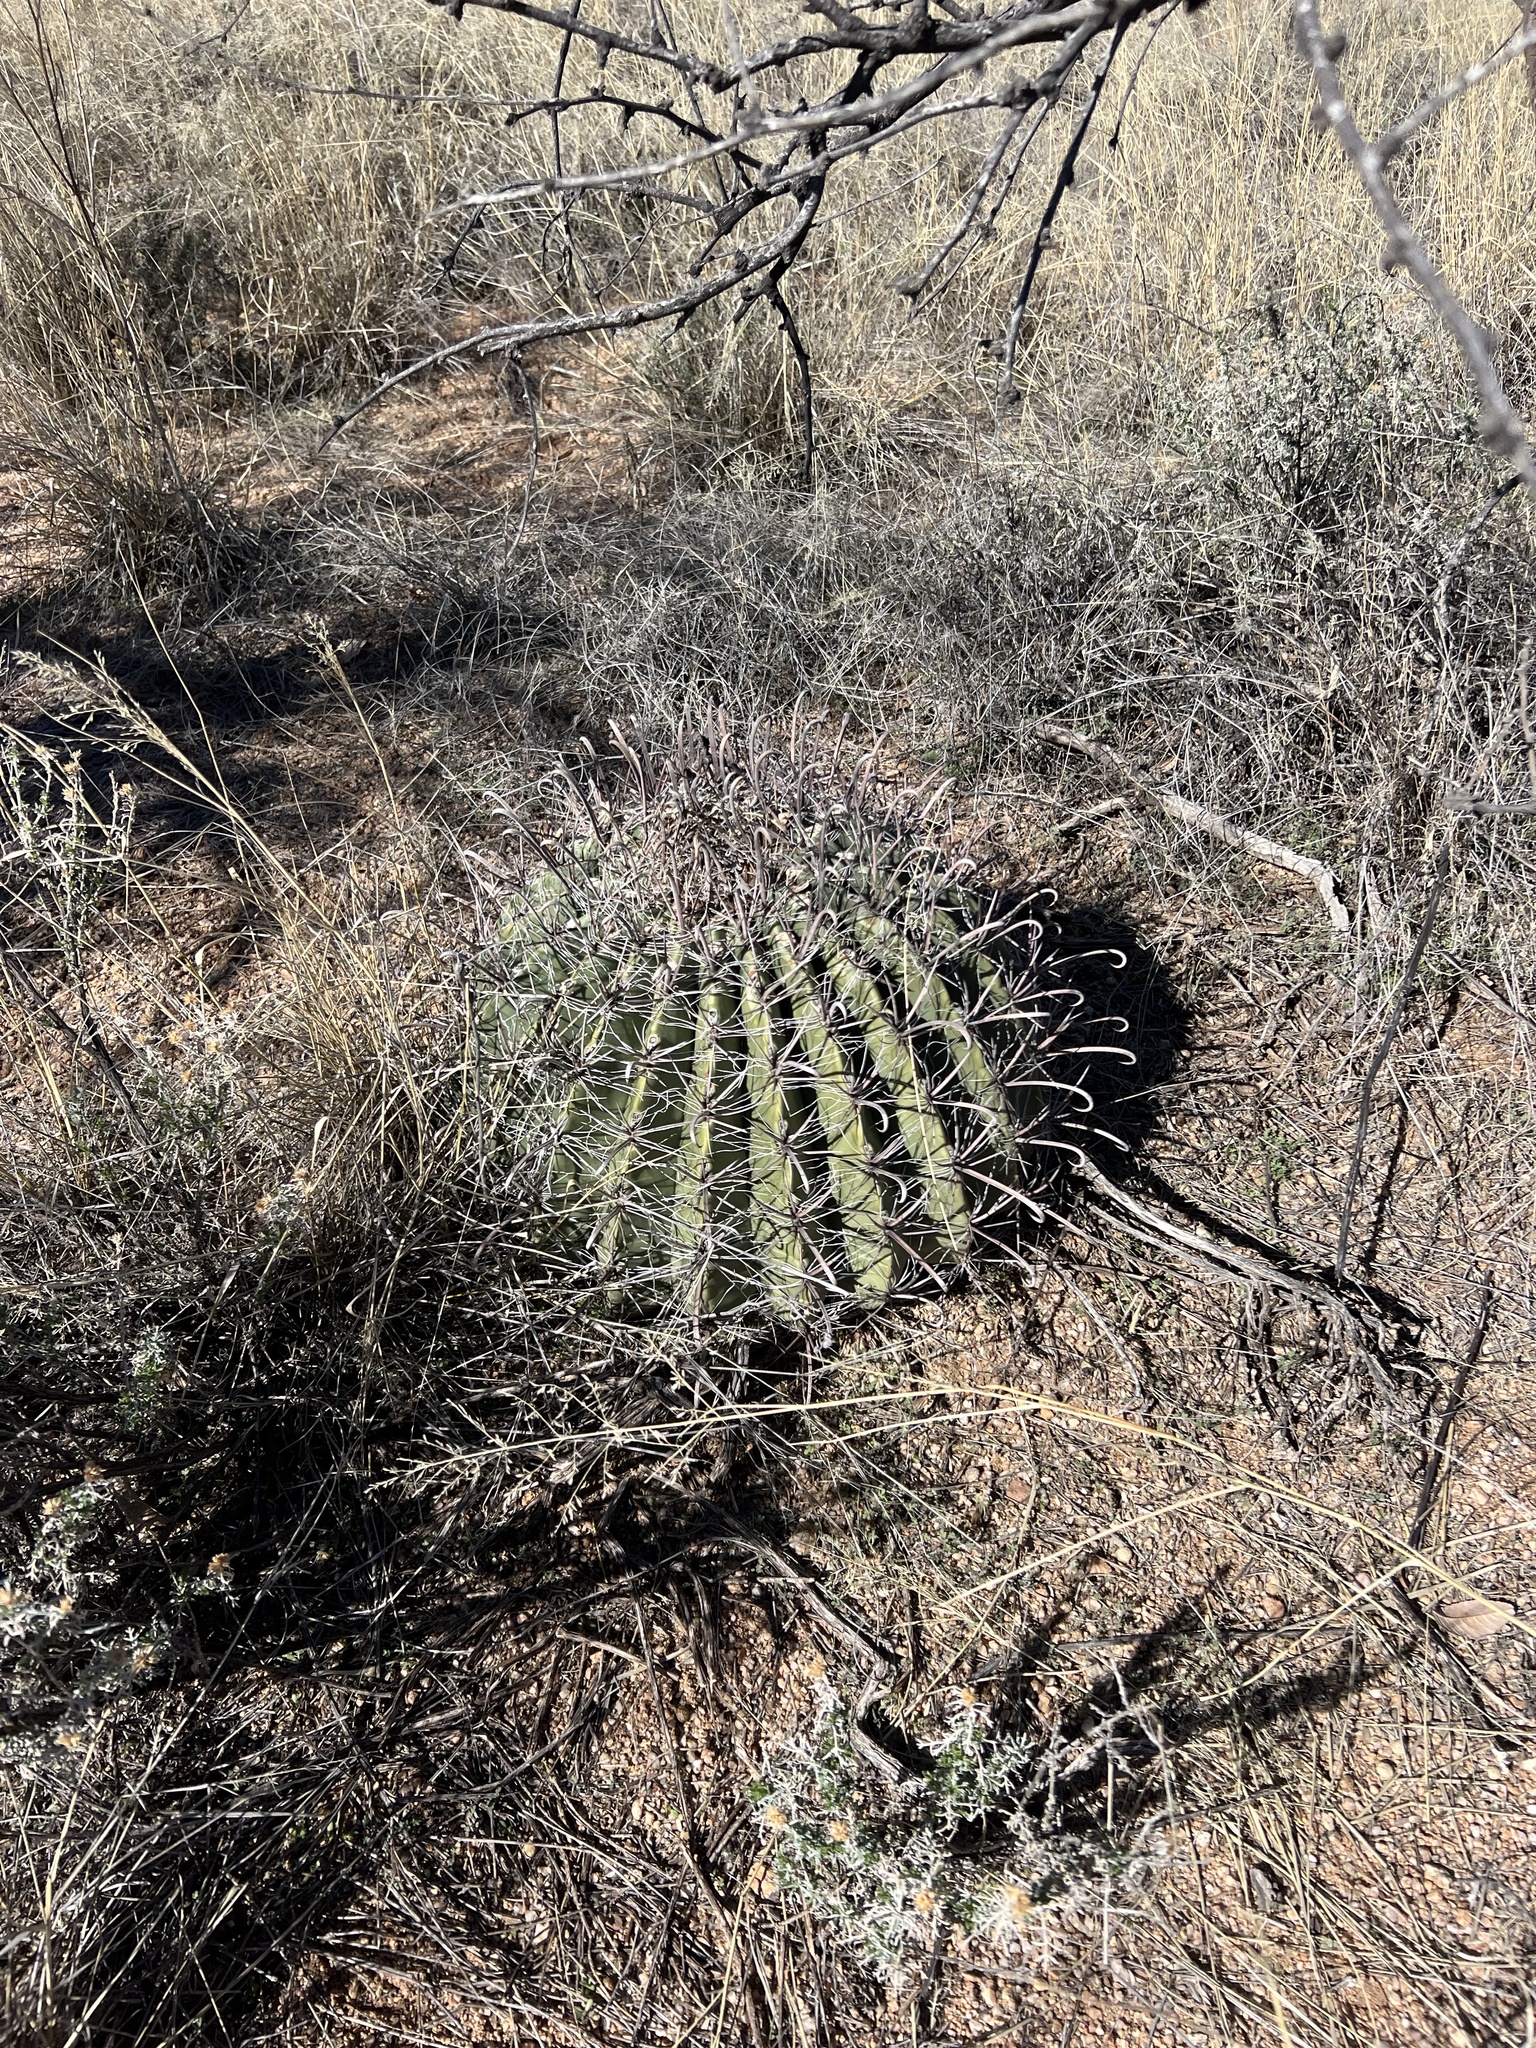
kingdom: Plantae
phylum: Tracheophyta
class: Magnoliopsida
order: Caryophyllales
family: Cactaceae
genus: Ferocactus
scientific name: Ferocactus wislizeni
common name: Candy barrel cactus
